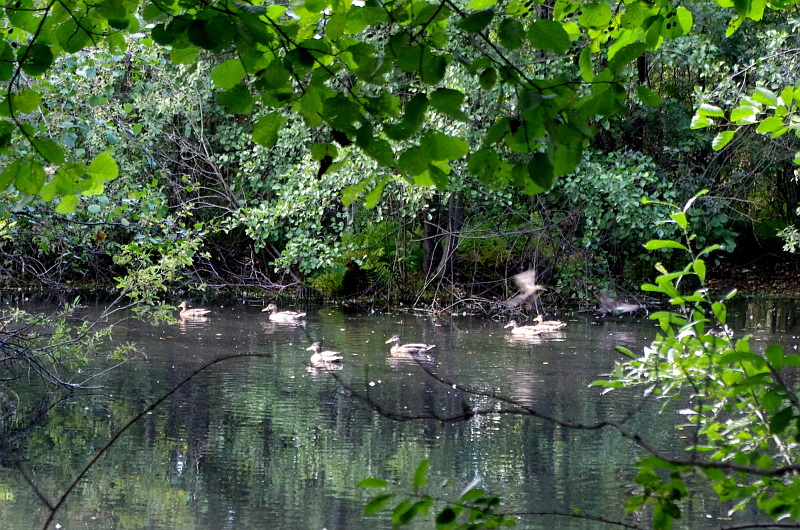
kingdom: Animalia
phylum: Chordata
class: Aves
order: Anseriformes
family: Anatidae
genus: Anas
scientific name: Anas platyrhynchos
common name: Mallard
